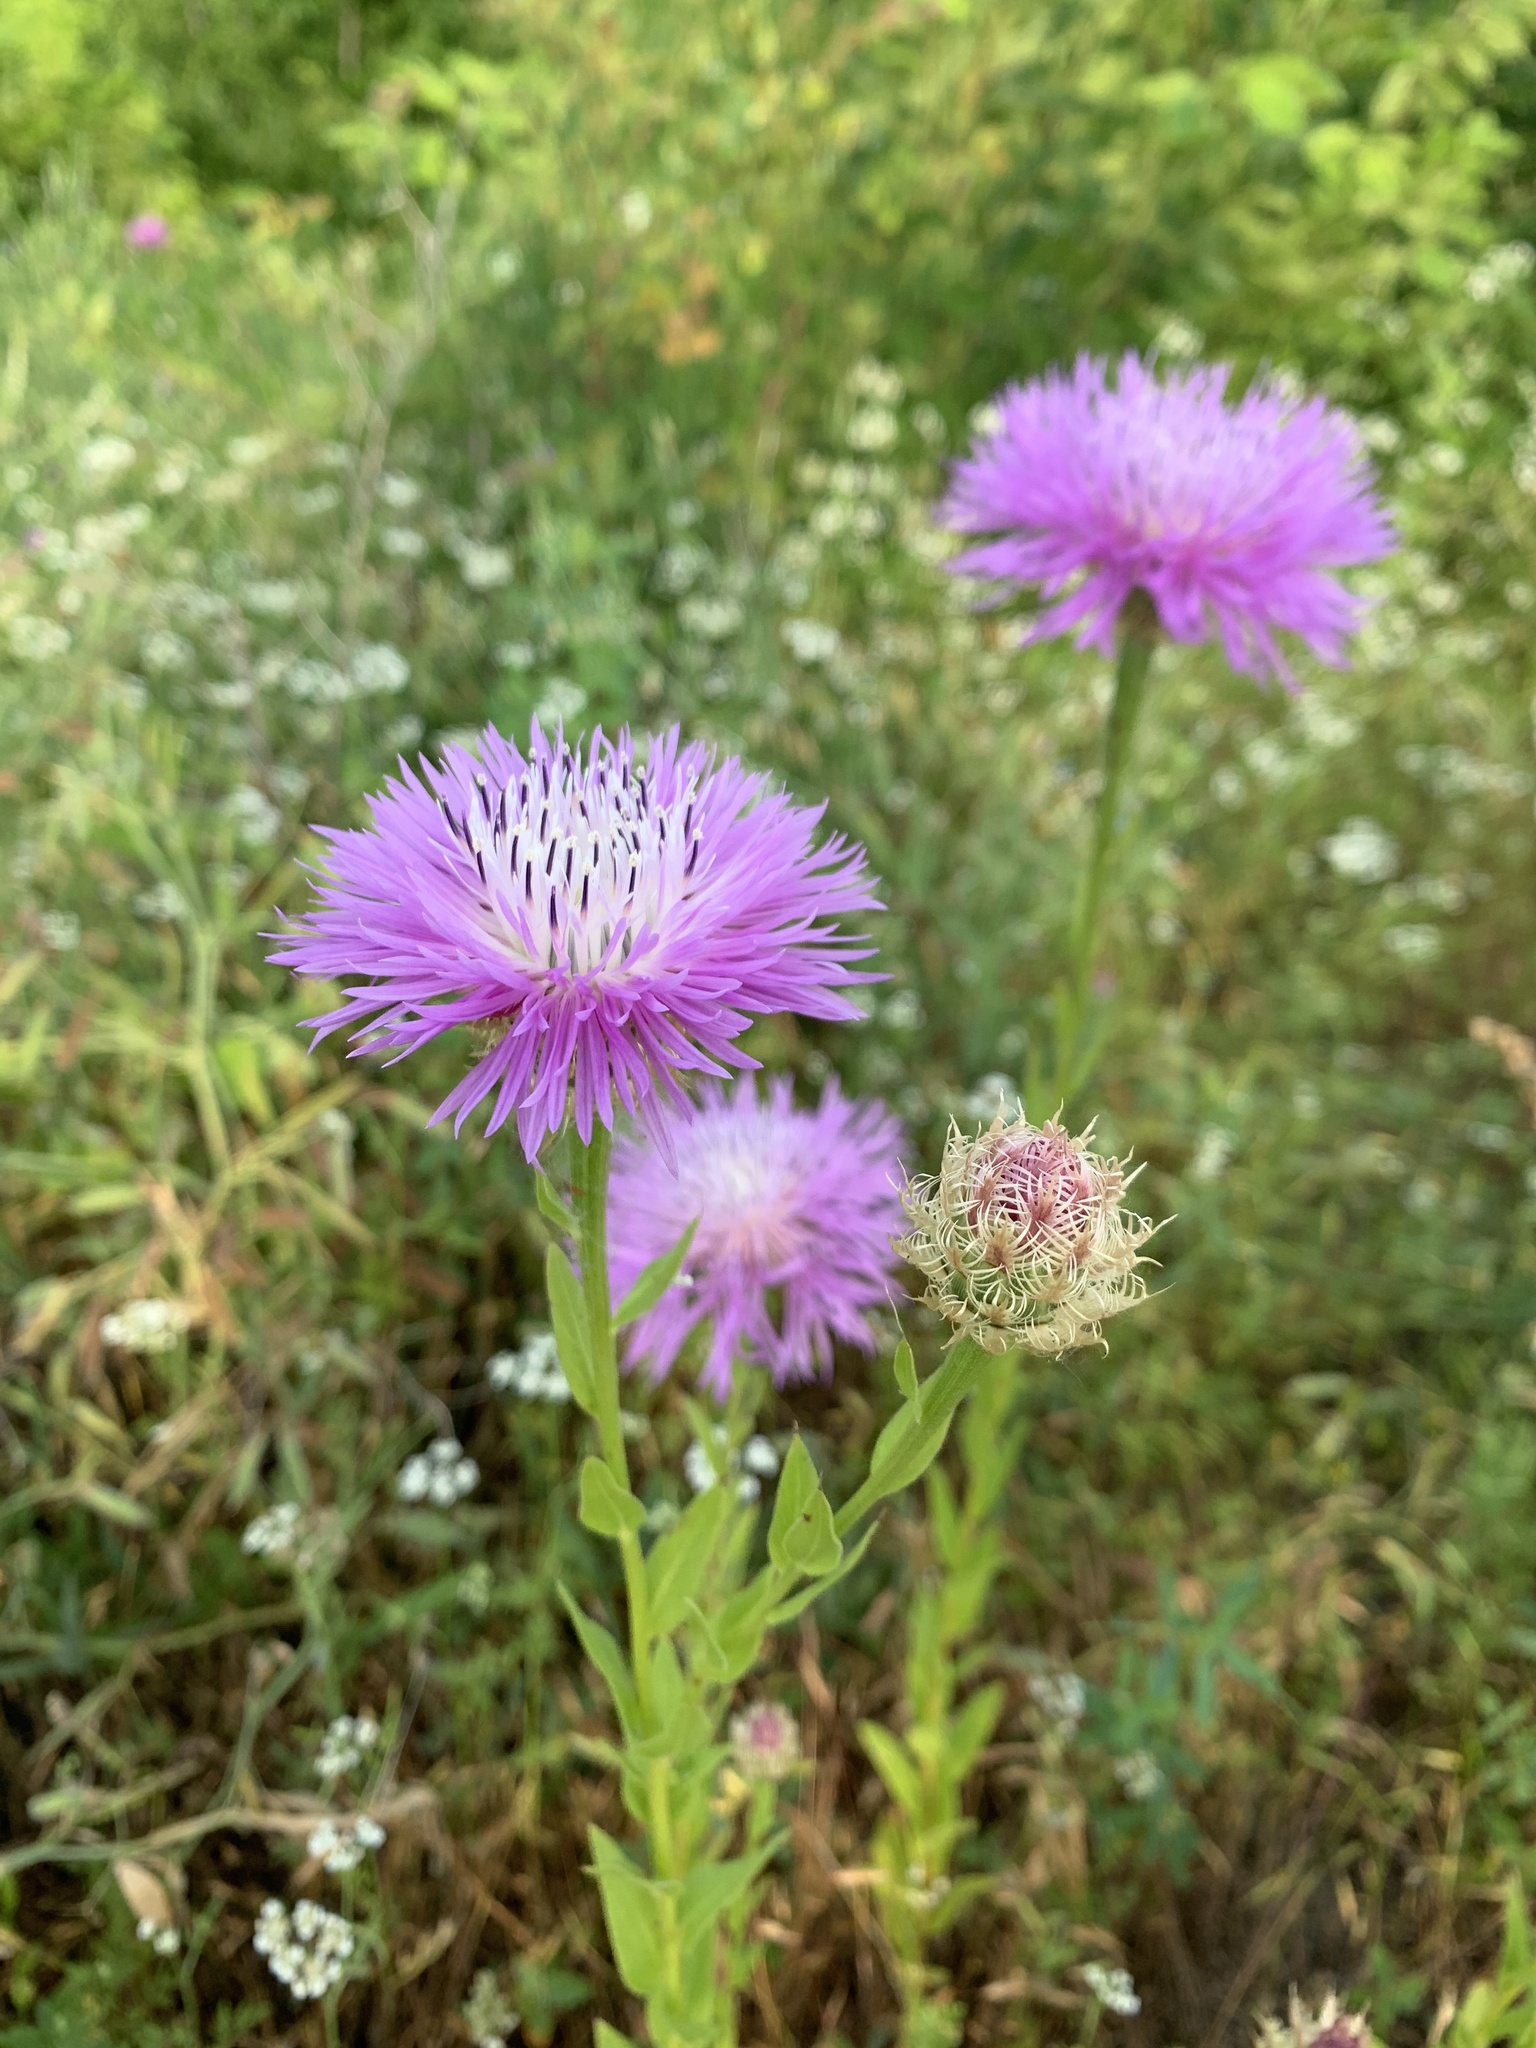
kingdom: Plantae
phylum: Tracheophyta
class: Magnoliopsida
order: Asterales
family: Asteraceae
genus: Plectocephalus
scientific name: Plectocephalus americanus
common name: American basket-flower
